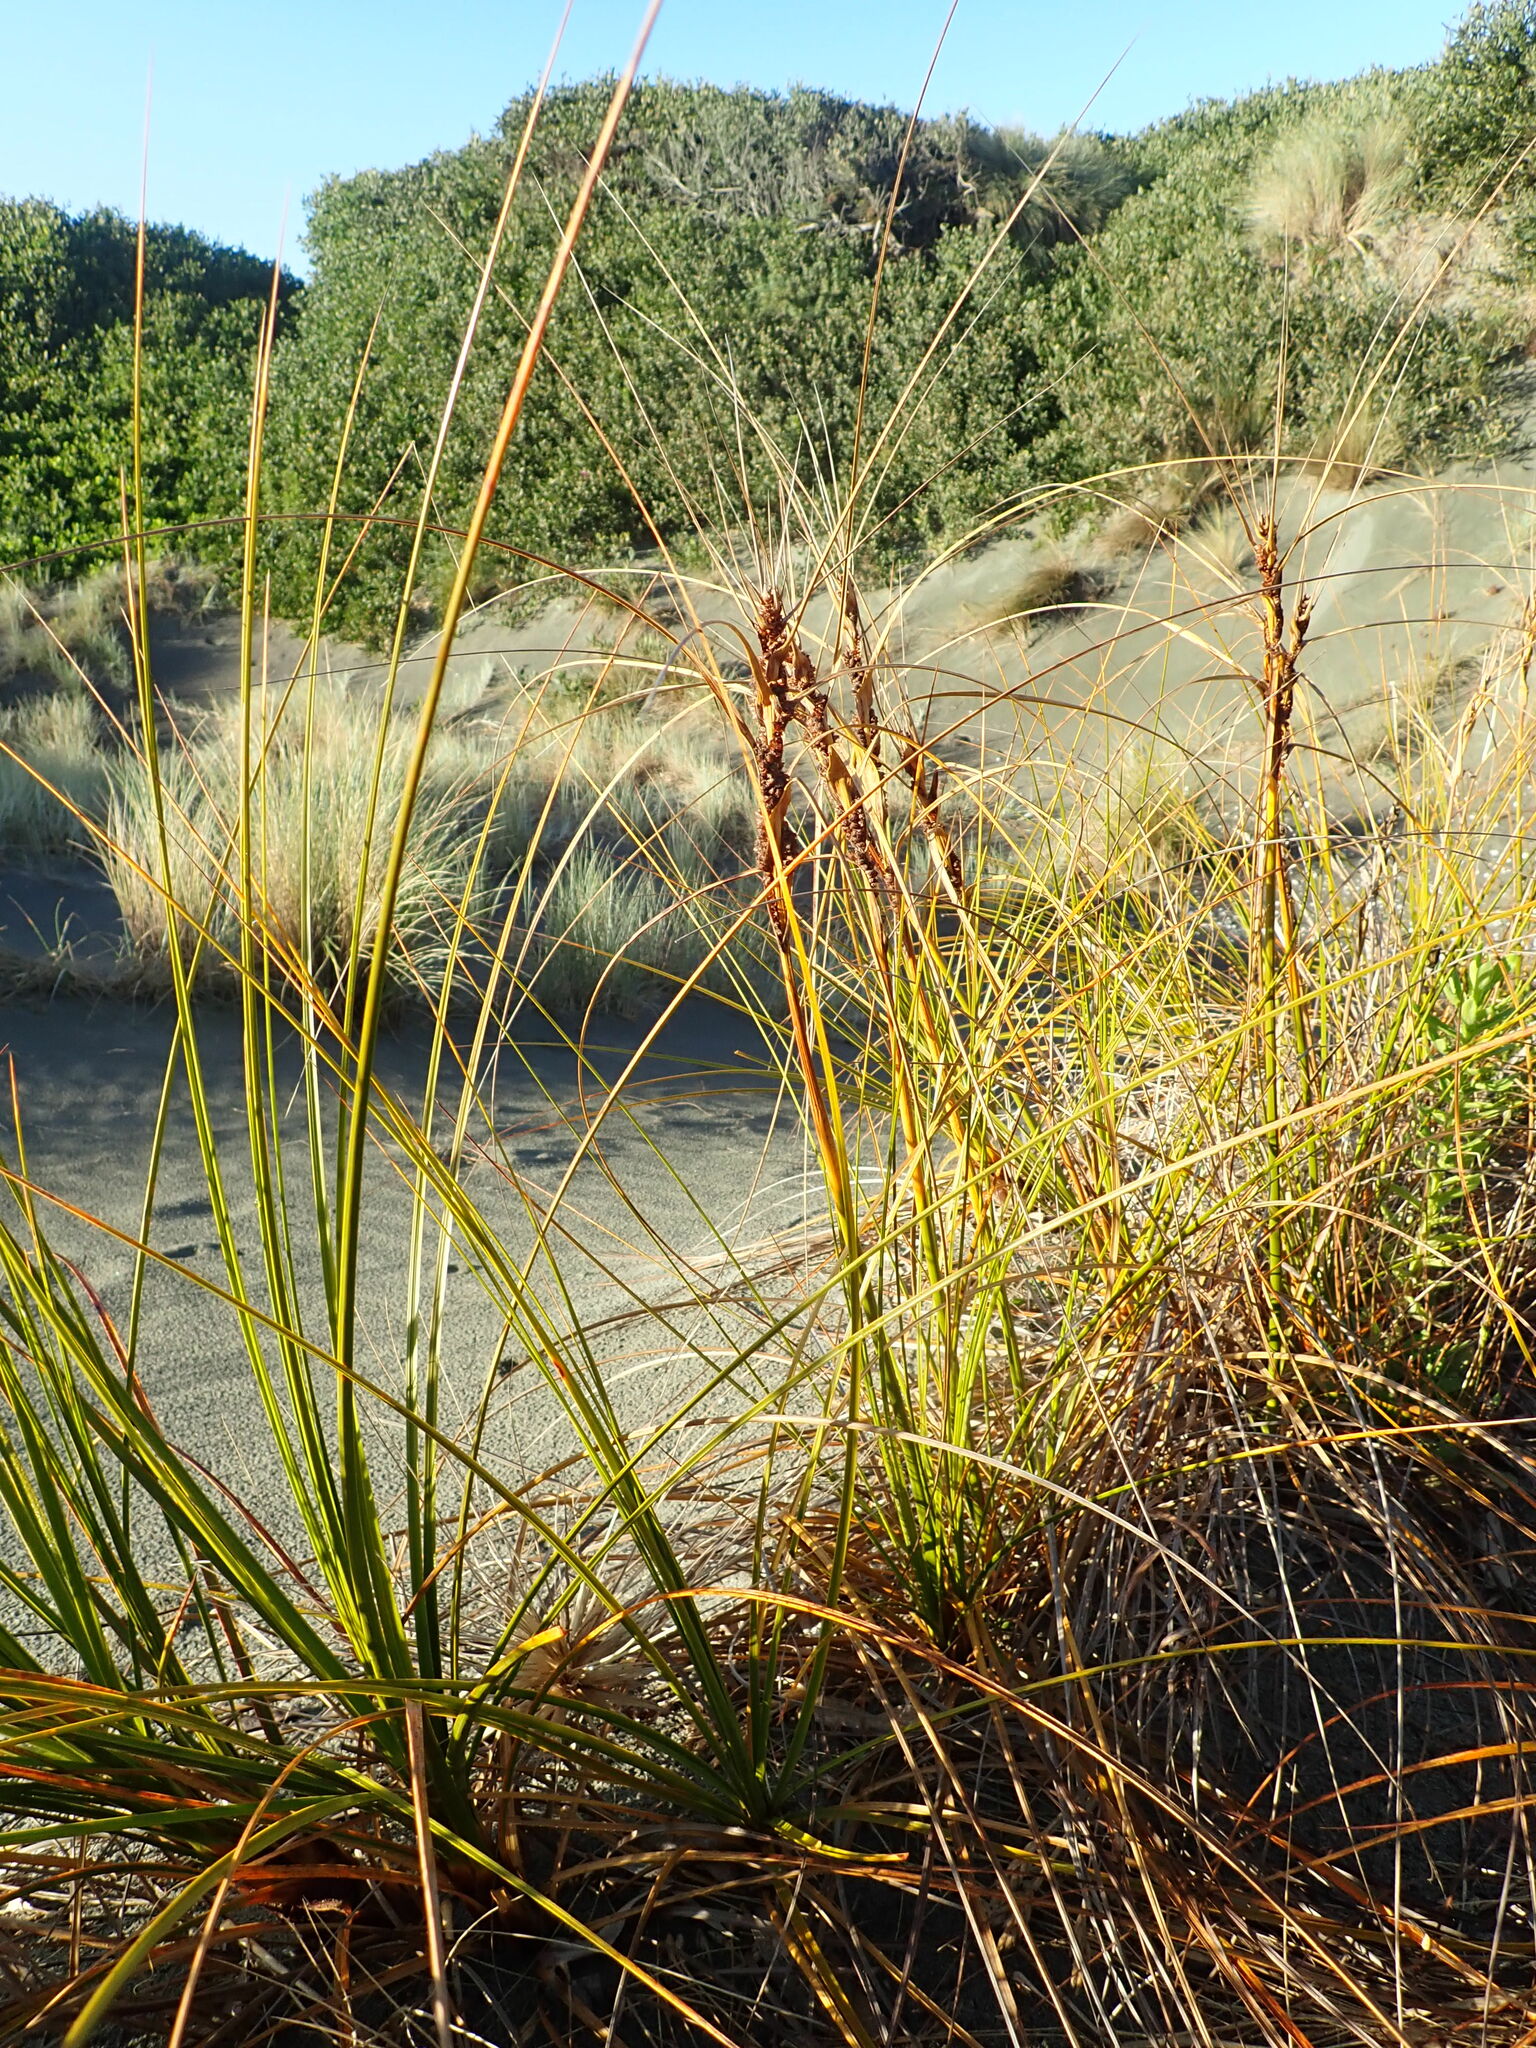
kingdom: Plantae
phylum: Tracheophyta
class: Liliopsida
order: Poales
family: Cyperaceae
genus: Ficinia
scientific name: Ficinia spiralis
